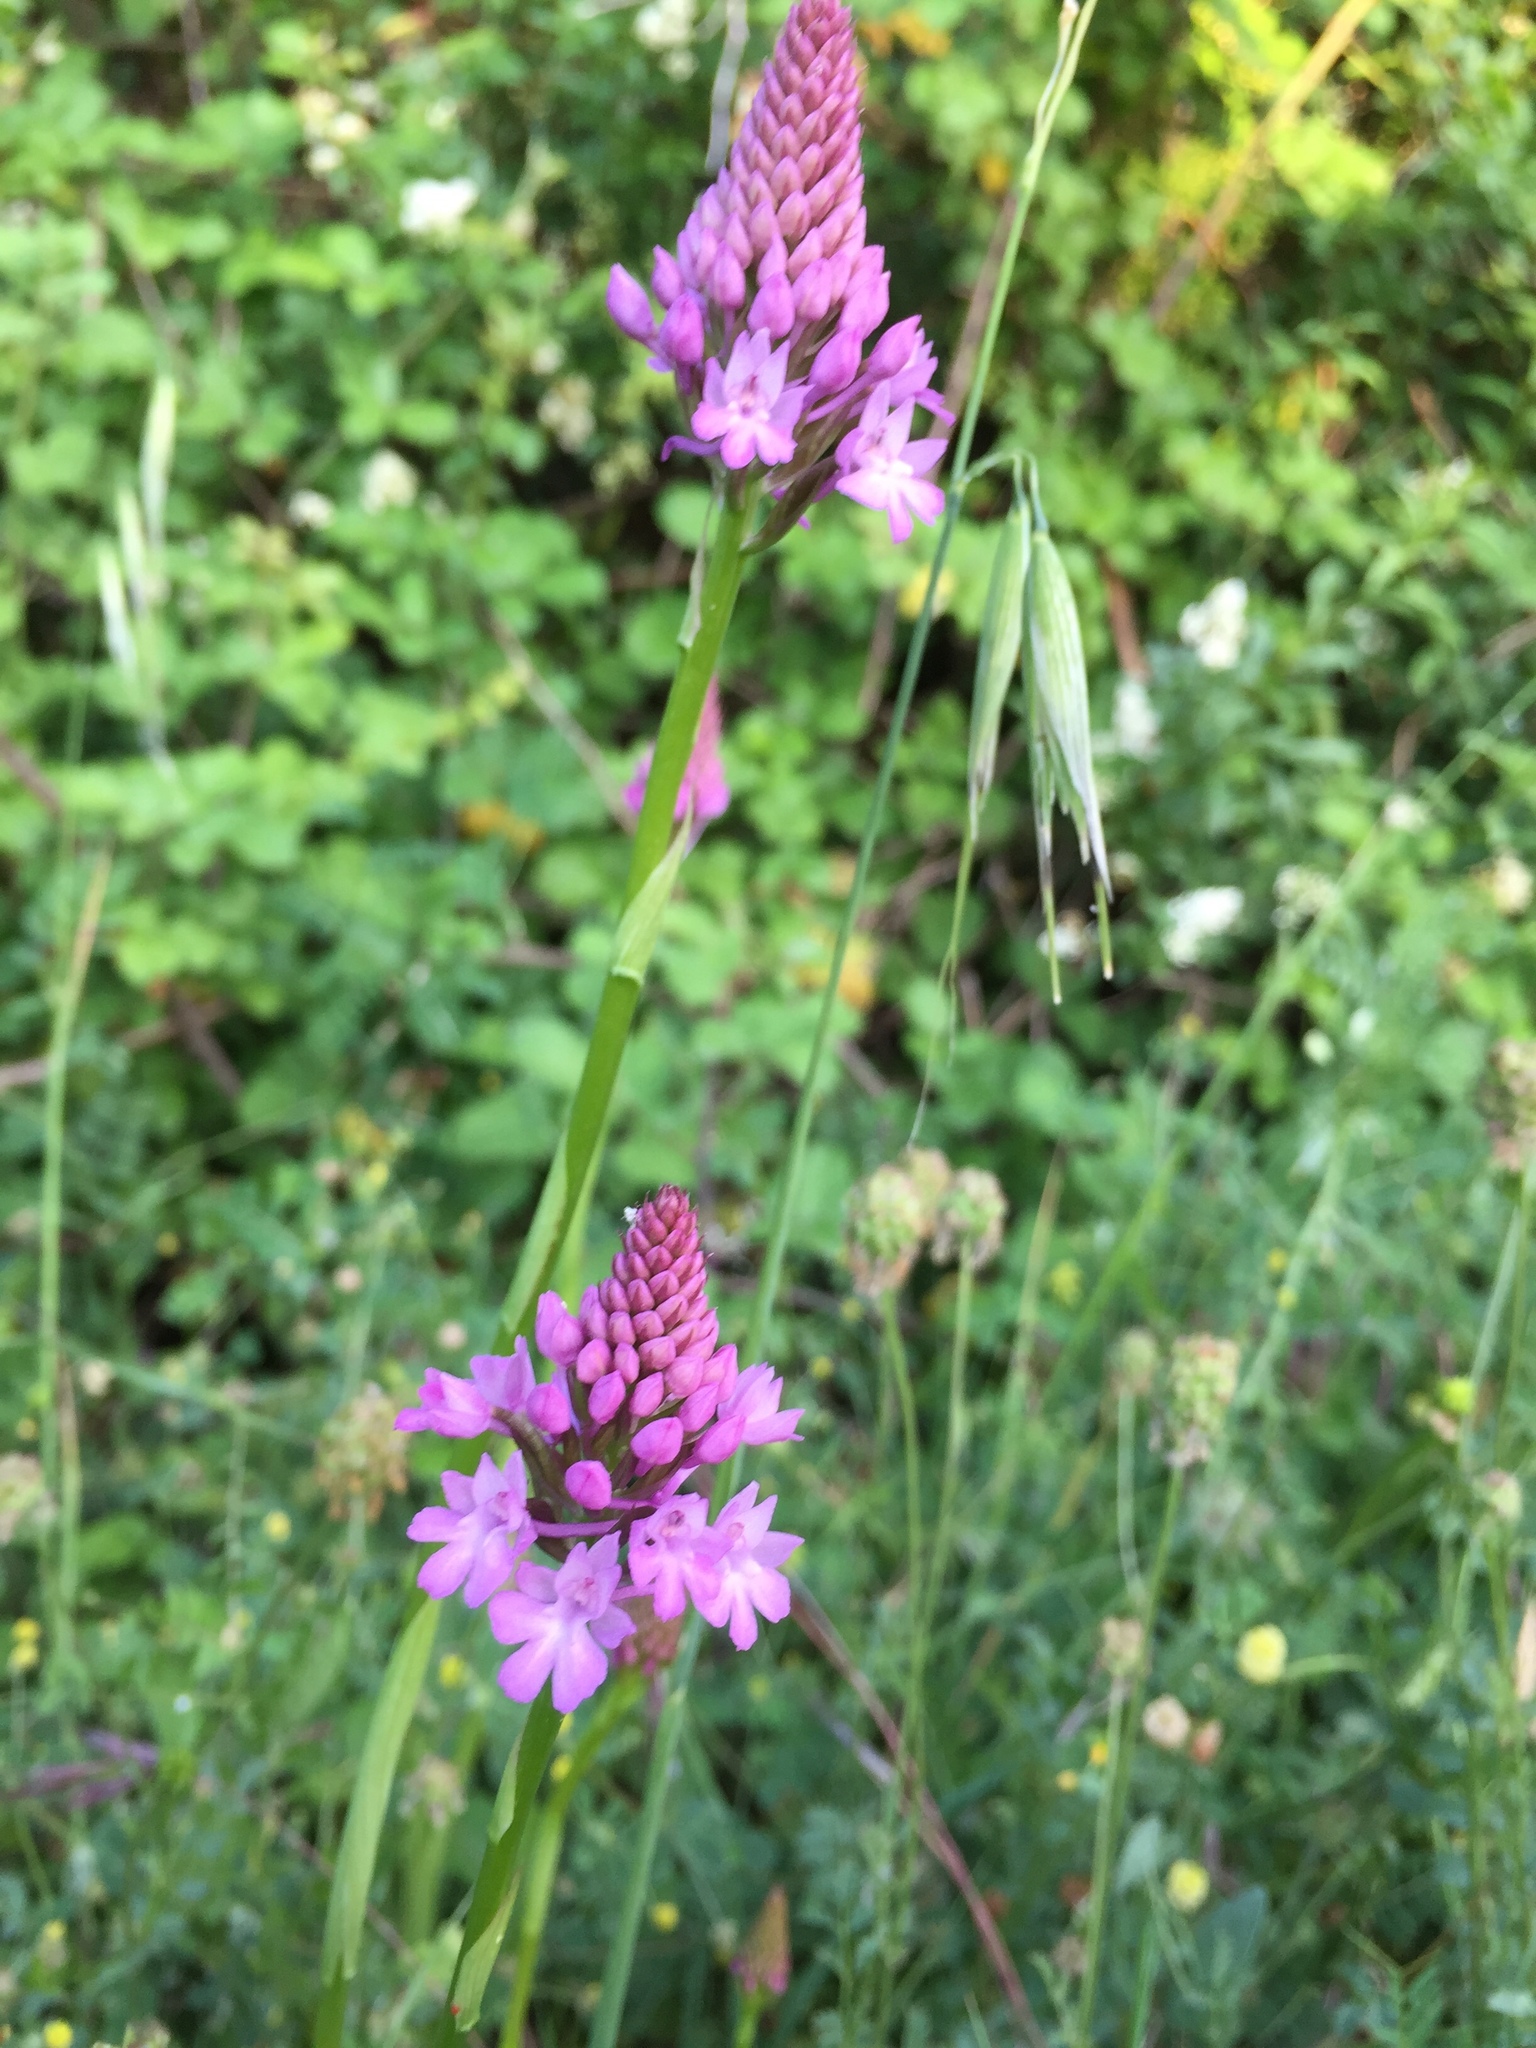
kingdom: Plantae
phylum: Tracheophyta
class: Liliopsida
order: Asparagales
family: Orchidaceae
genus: Anacamptis
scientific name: Anacamptis pyramidalis
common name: Pyramidal orchid
